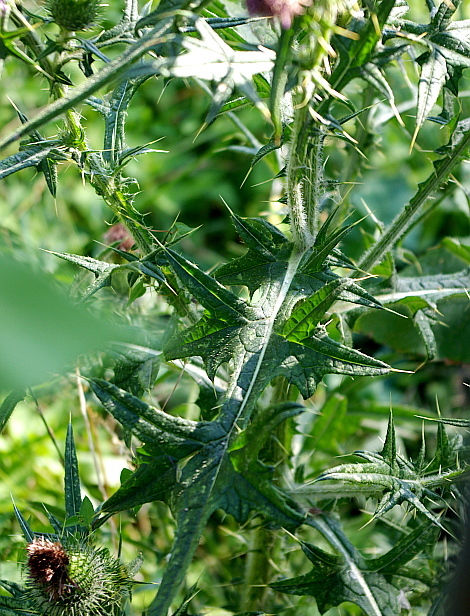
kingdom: Plantae
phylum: Tracheophyta
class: Magnoliopsida
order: Asterales
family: Asteraceae
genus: Cirsium
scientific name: Cirsium vulgare
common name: Bull thistle
